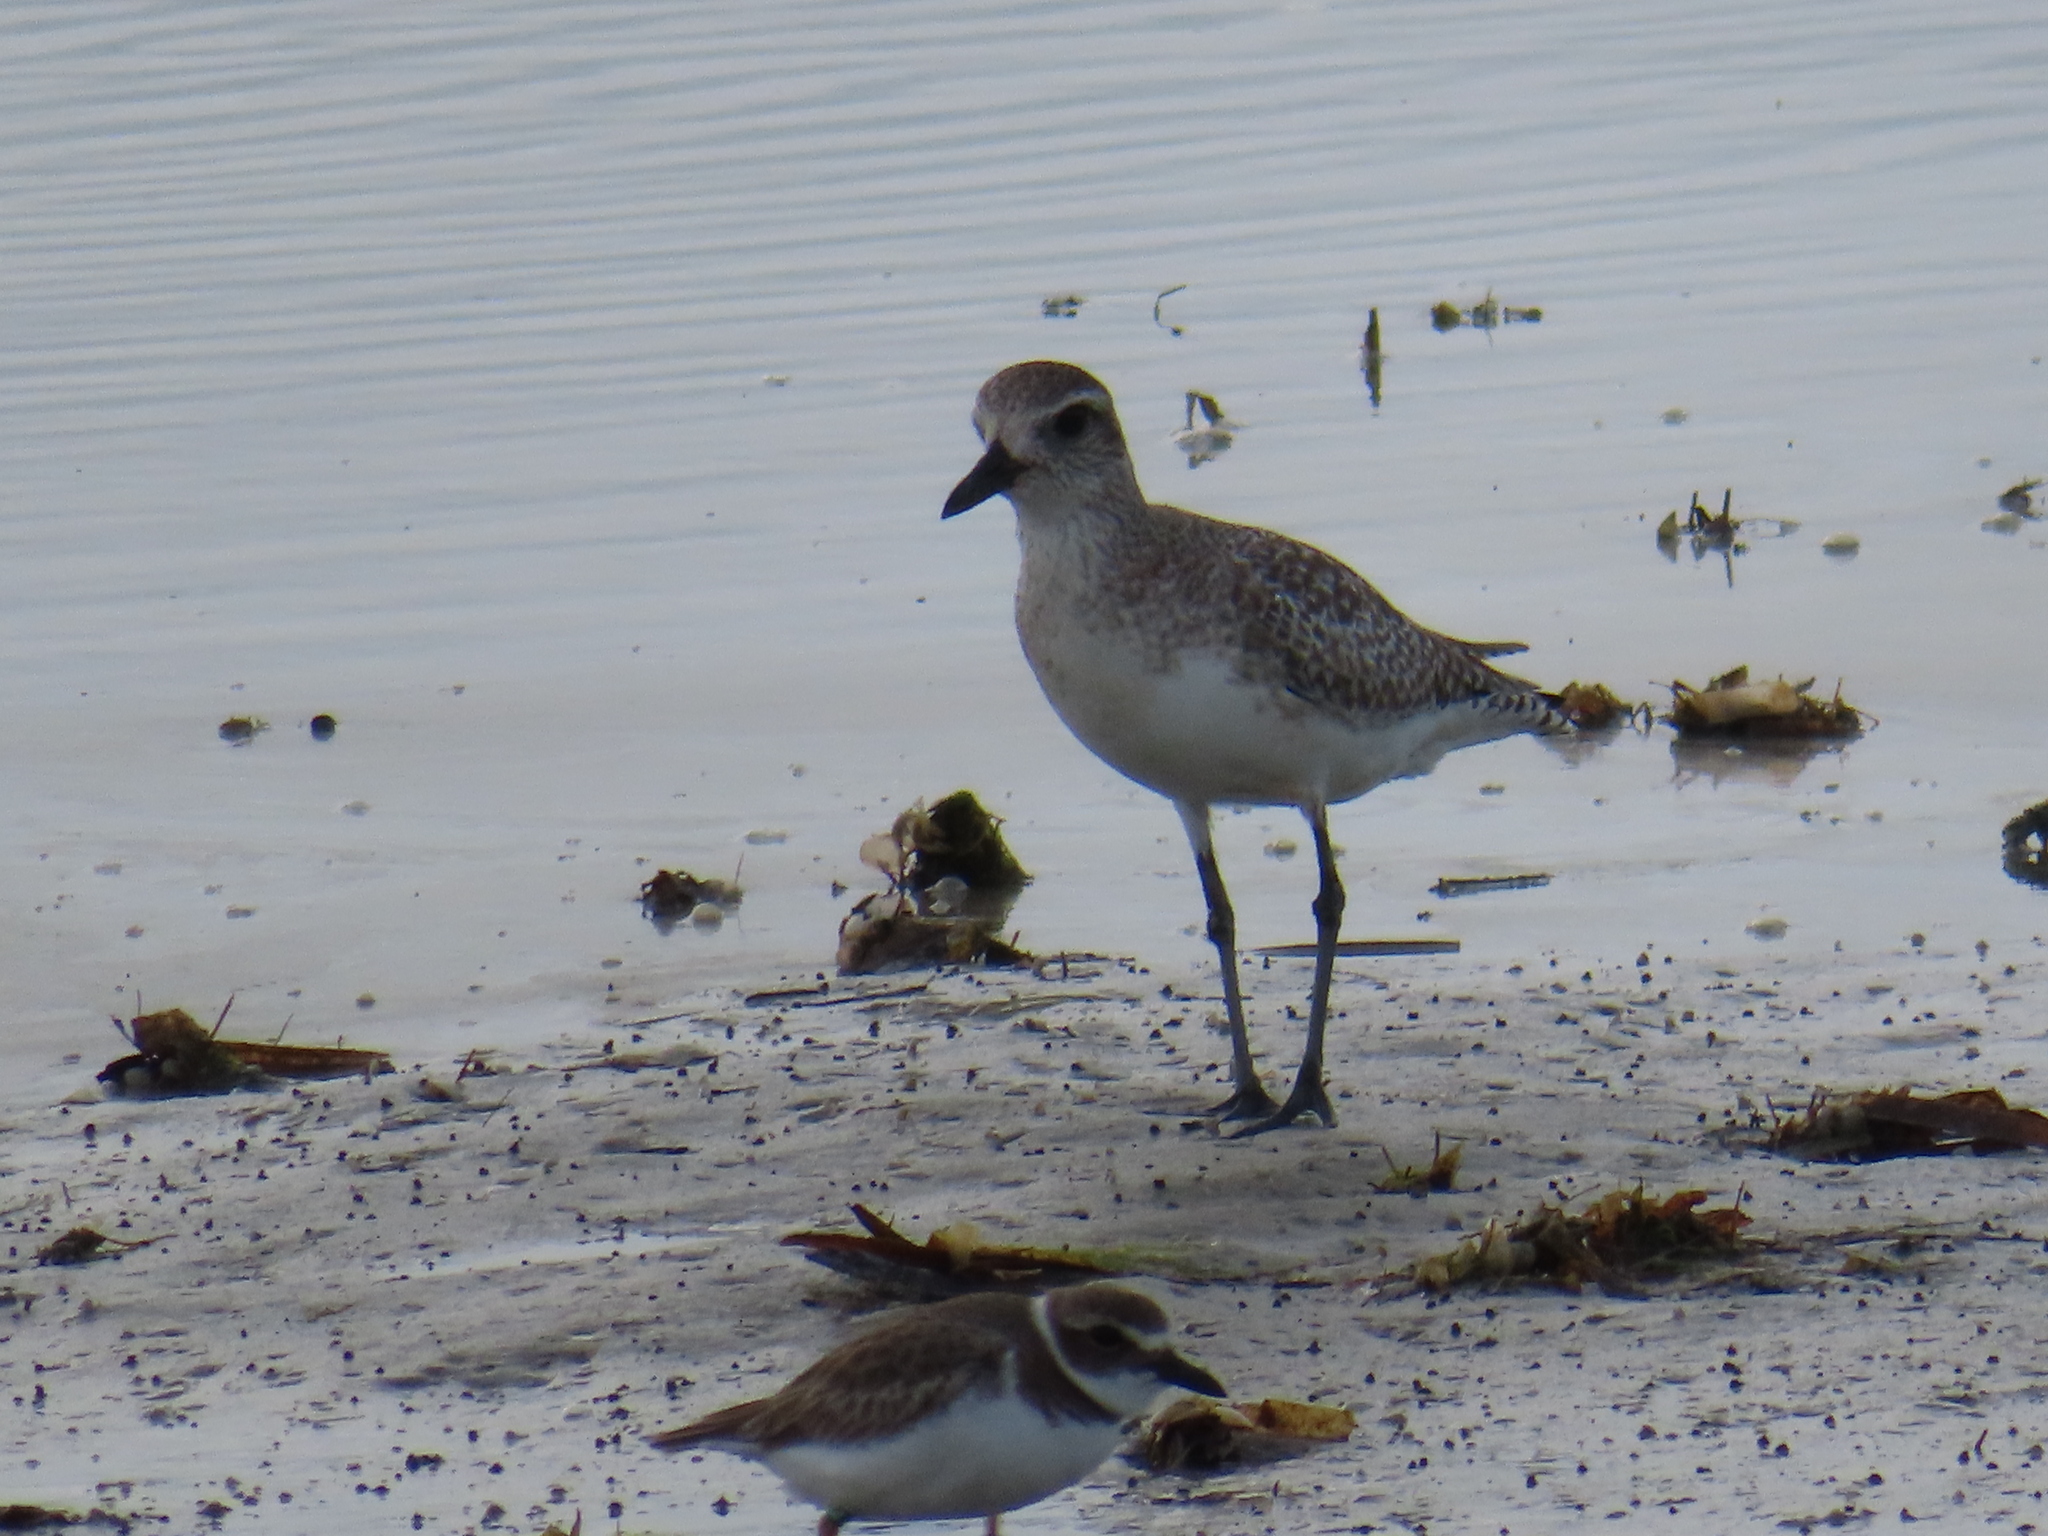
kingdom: Animalia
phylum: Chordata
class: Aves
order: Charadriiformes
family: Charadriidae
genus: Pluvialis
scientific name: Pluvialis squatarola
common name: Grey plover
